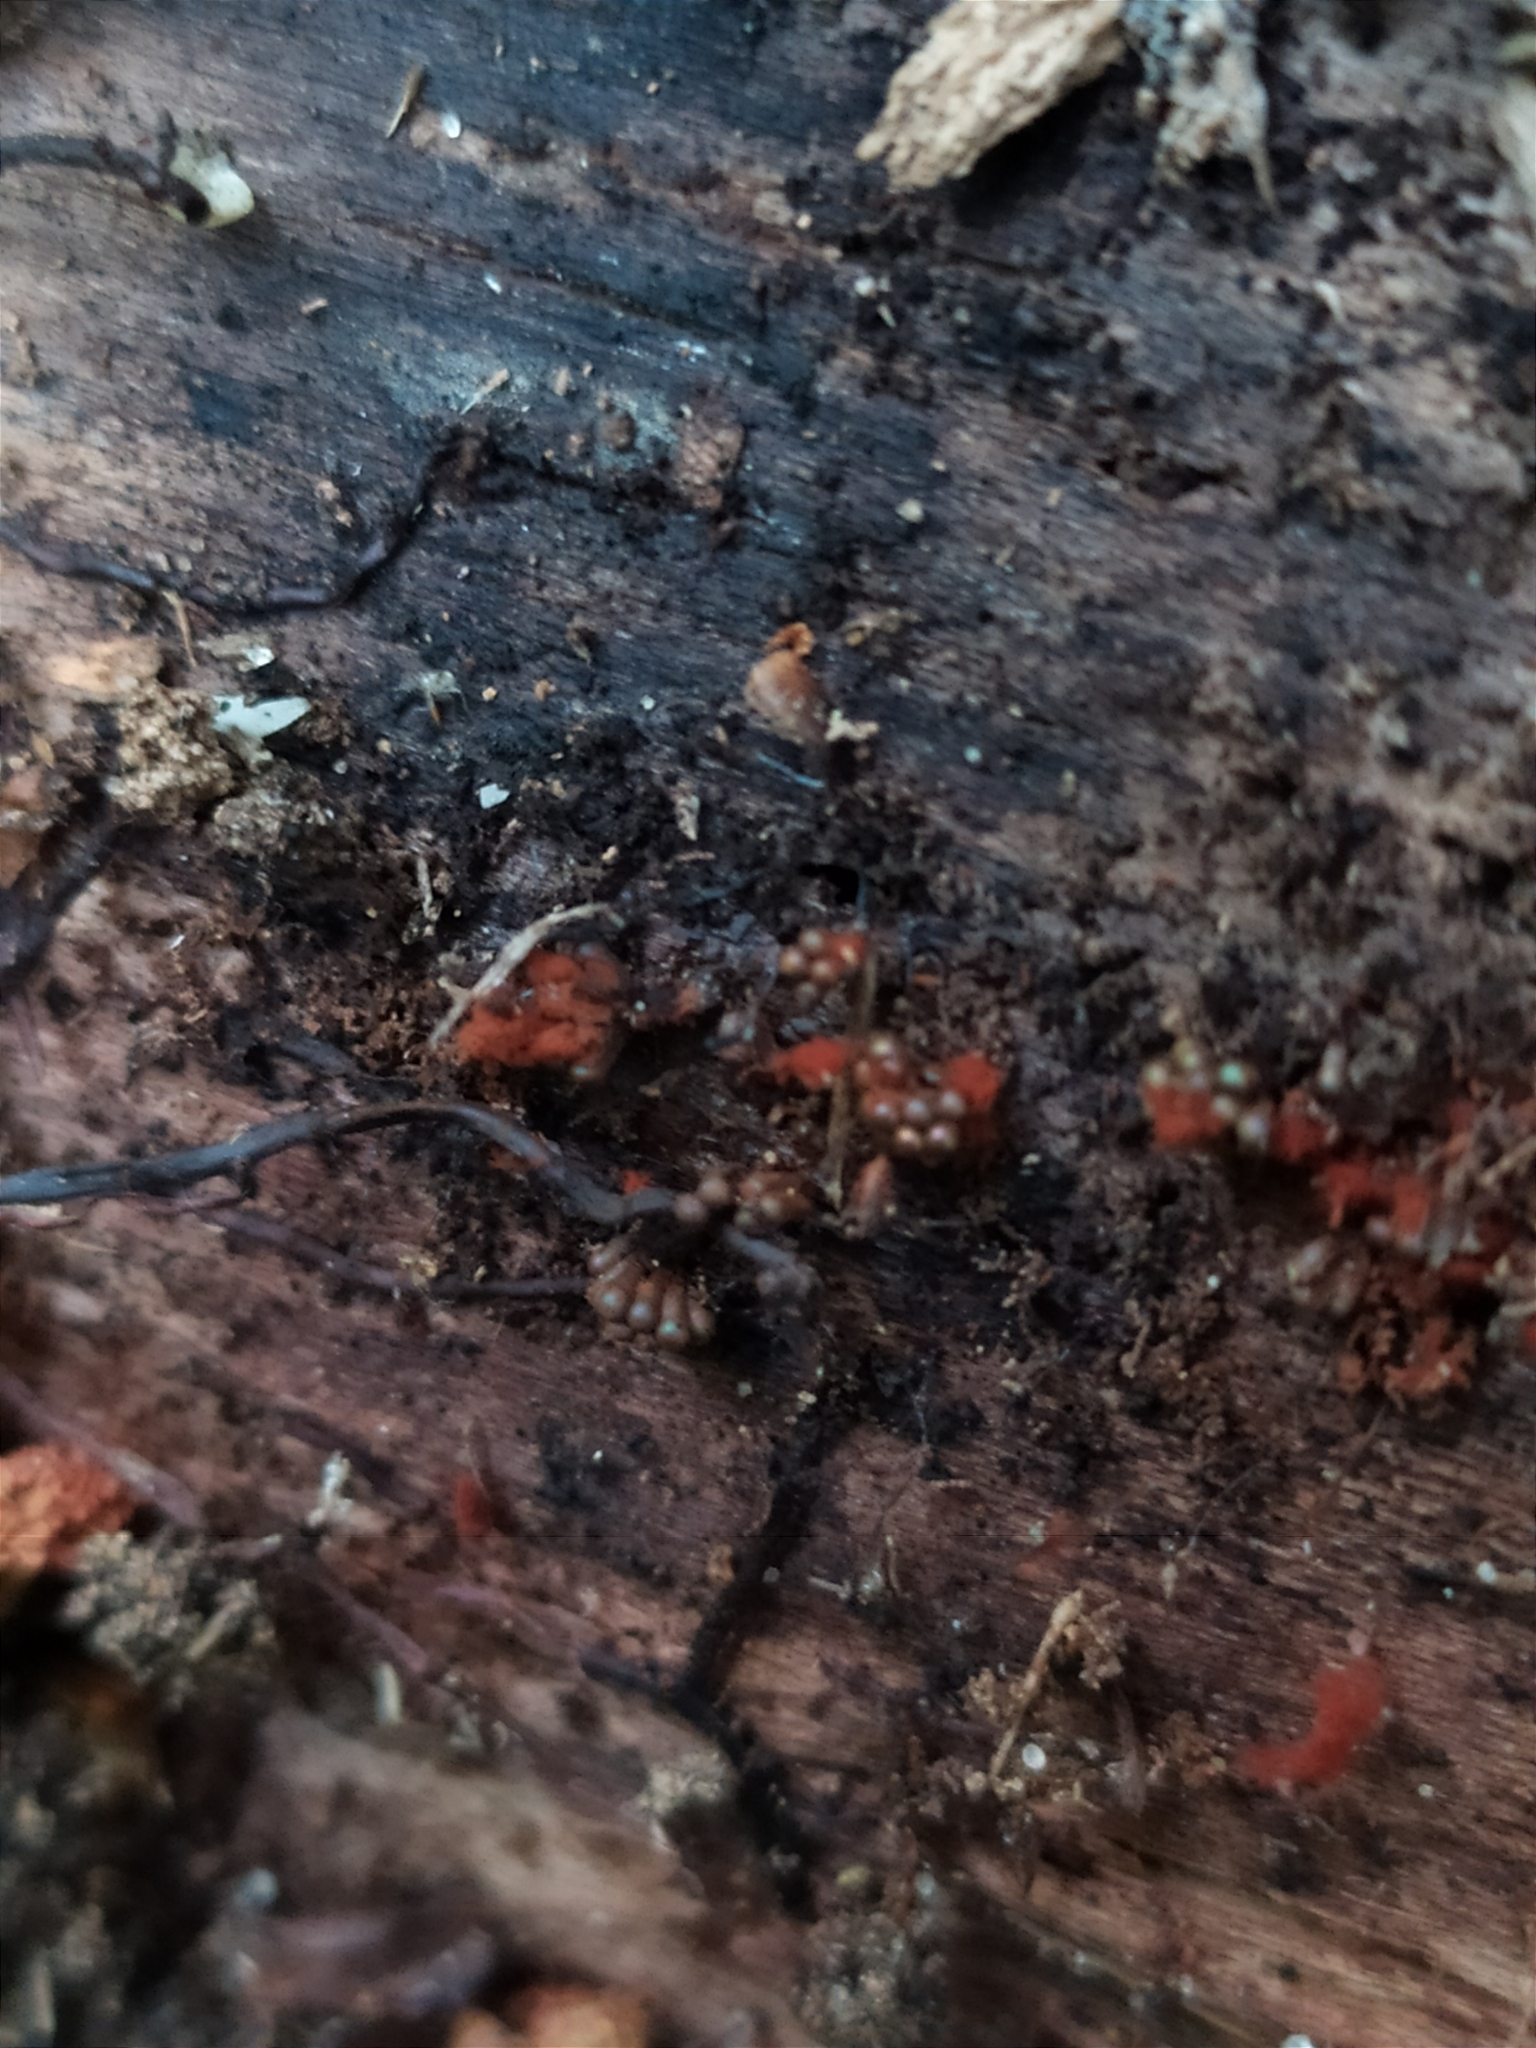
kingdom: Protozoa
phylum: Mycetozoa
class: Myxomycetes
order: Trichiales
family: Trichiaceae
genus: Metatrichia
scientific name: Metatrichia vesparia
